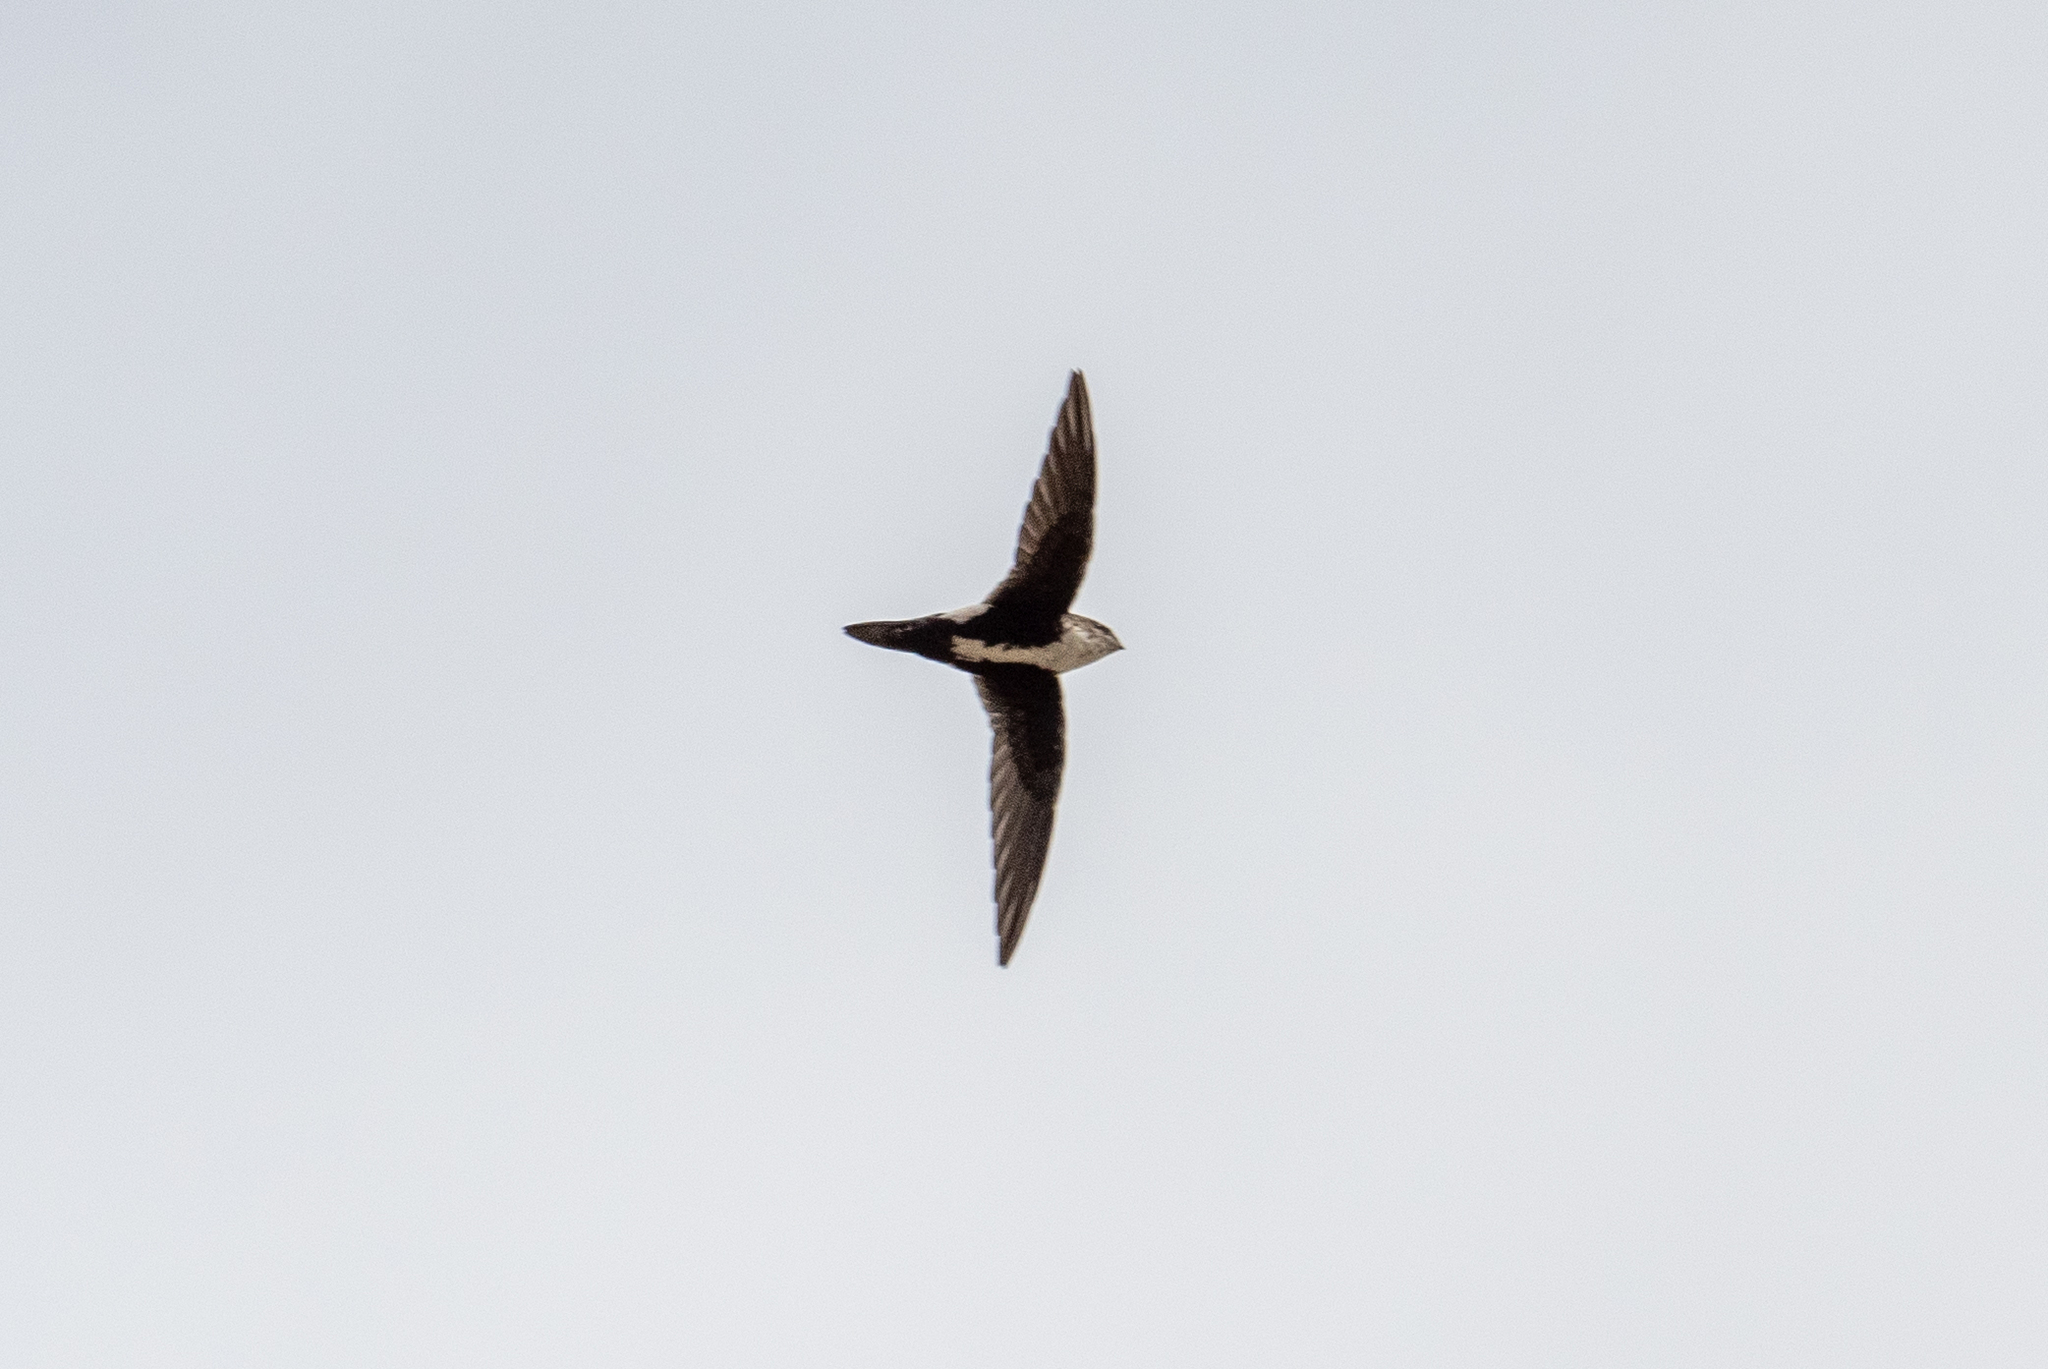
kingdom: Animalia
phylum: Chordata
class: Aves
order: Apodiformes
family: Apodidae
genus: Aeronautes
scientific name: Aeronautes saxatalis
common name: White-throated swift
